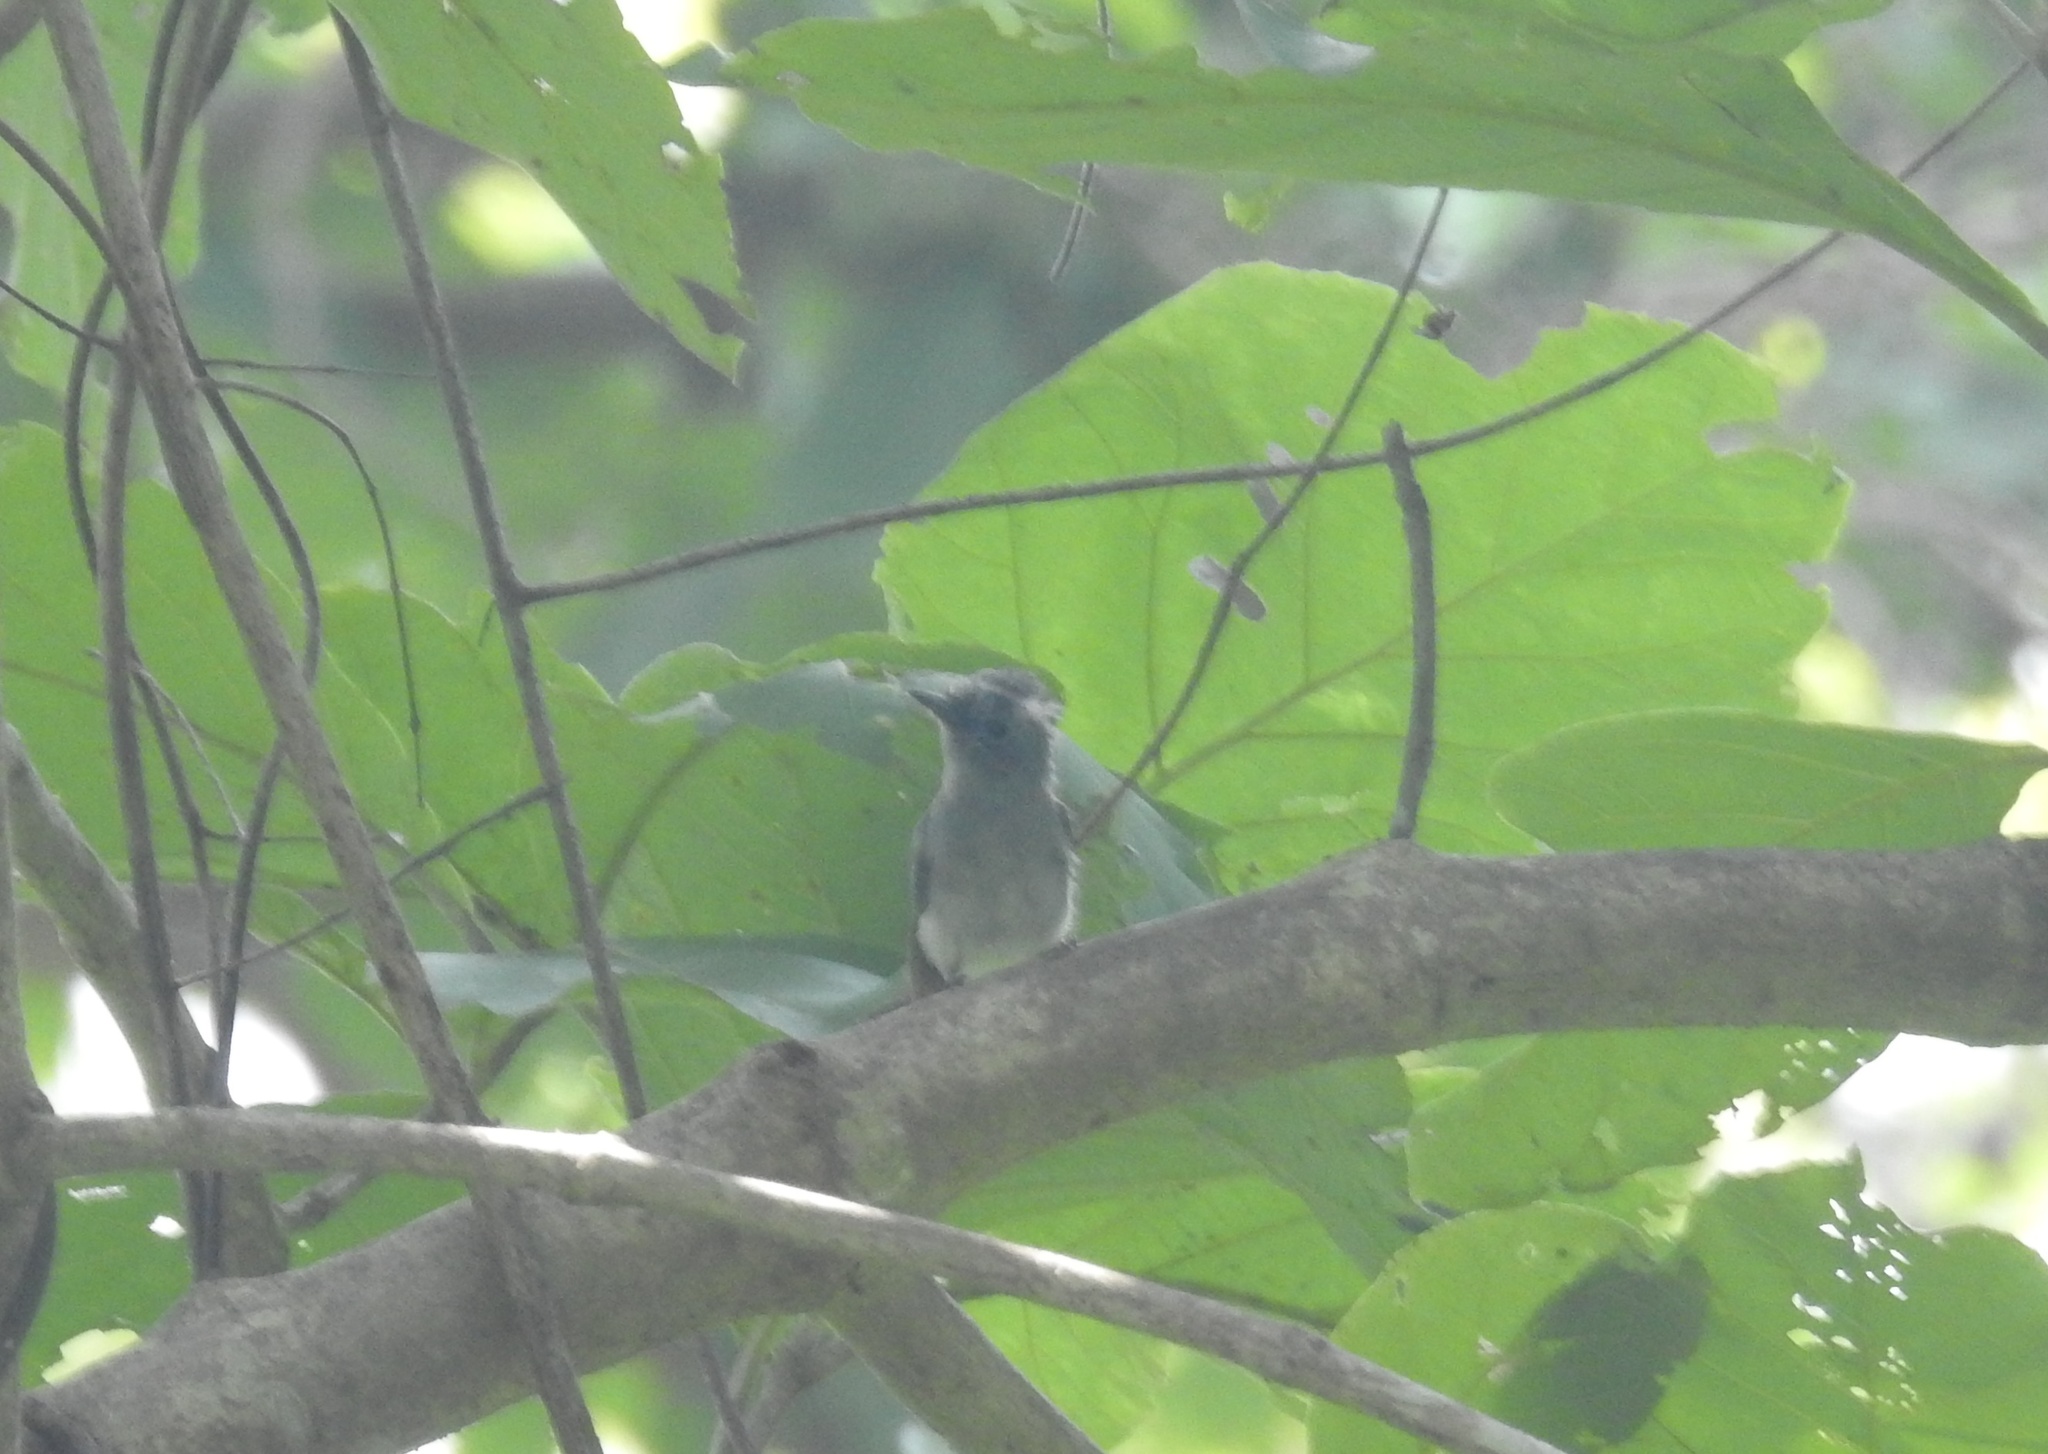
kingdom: Animalia
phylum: Chordata
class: Aves
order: Passeriformes
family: Monarchidae
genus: Hypothymis
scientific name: Hypothymis azurea
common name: Black-naped monarch
